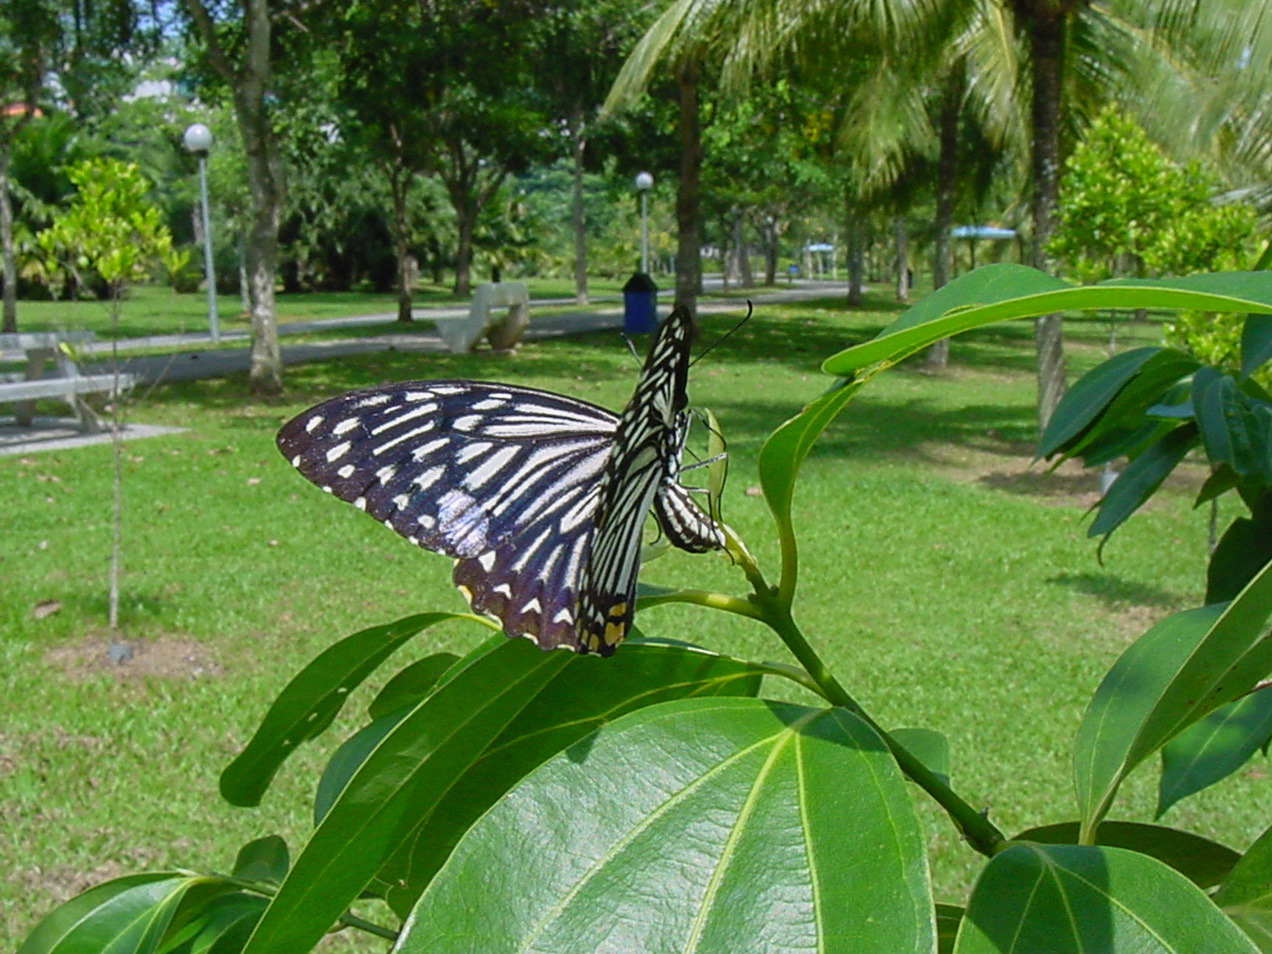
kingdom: Animalia
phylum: Arthropoda
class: Insecta
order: Lepidoptera
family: Papilionidae
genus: Chilasa
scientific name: Chilasa clytia
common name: Common mime
